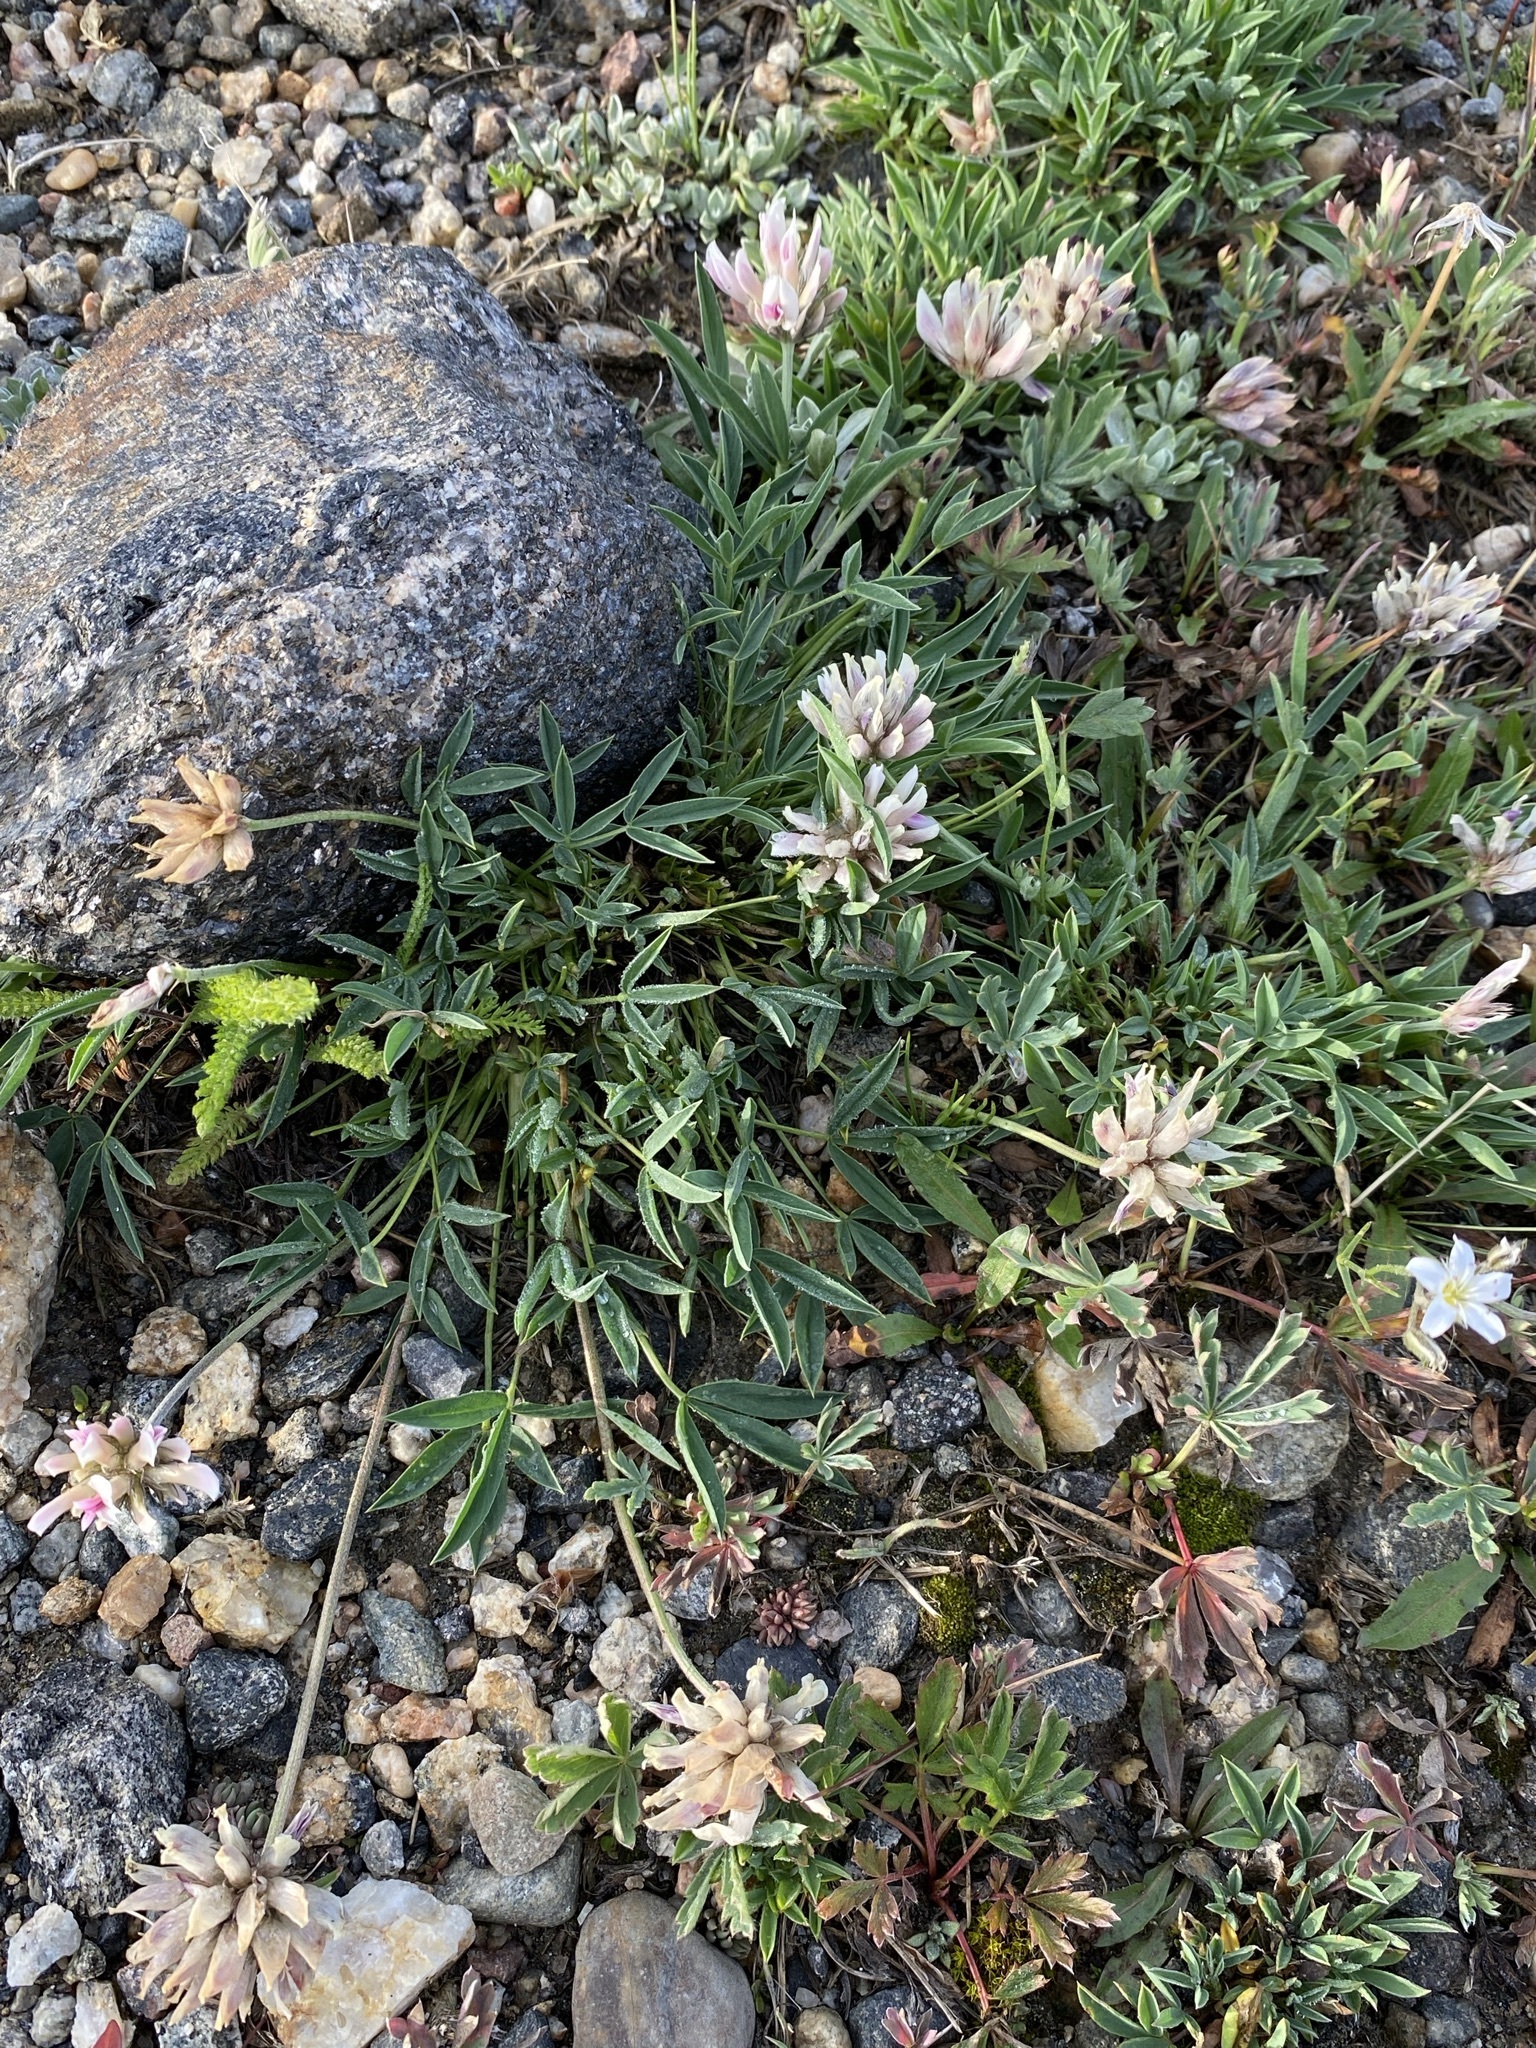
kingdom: Plantae
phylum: Tracheophyta
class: Magnoliopsida
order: Fabales
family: Fabaceae
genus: Trifolium
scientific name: Trifolium dasyphyllum
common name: Whip-root clover
